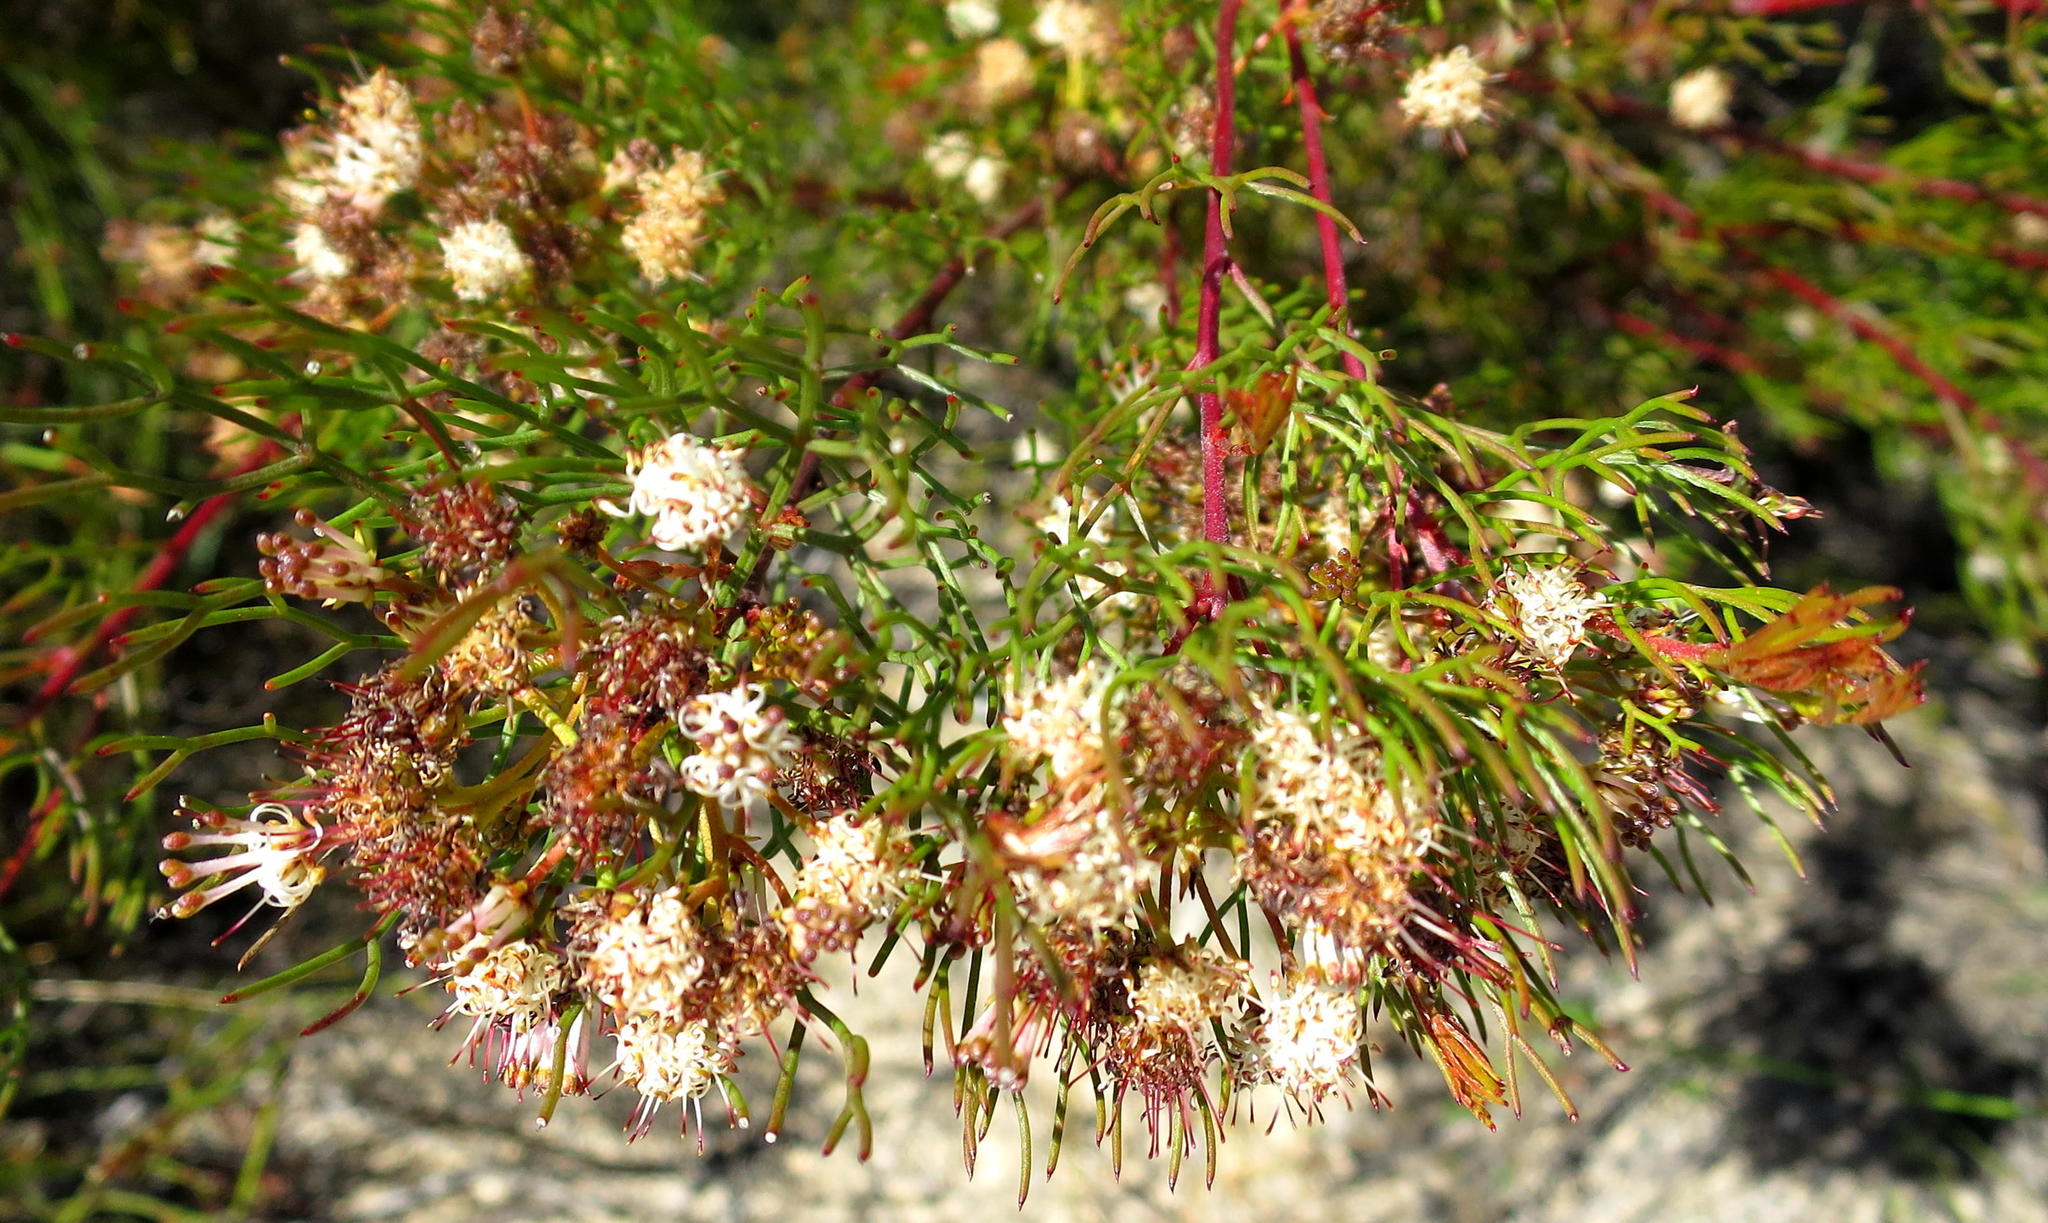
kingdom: Plantae
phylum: Tracheophyta
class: Magnoliopsida
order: Proteales
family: Proteaceae
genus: Serruria
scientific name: Serruria fasciflora
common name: Common pin spiderhead
